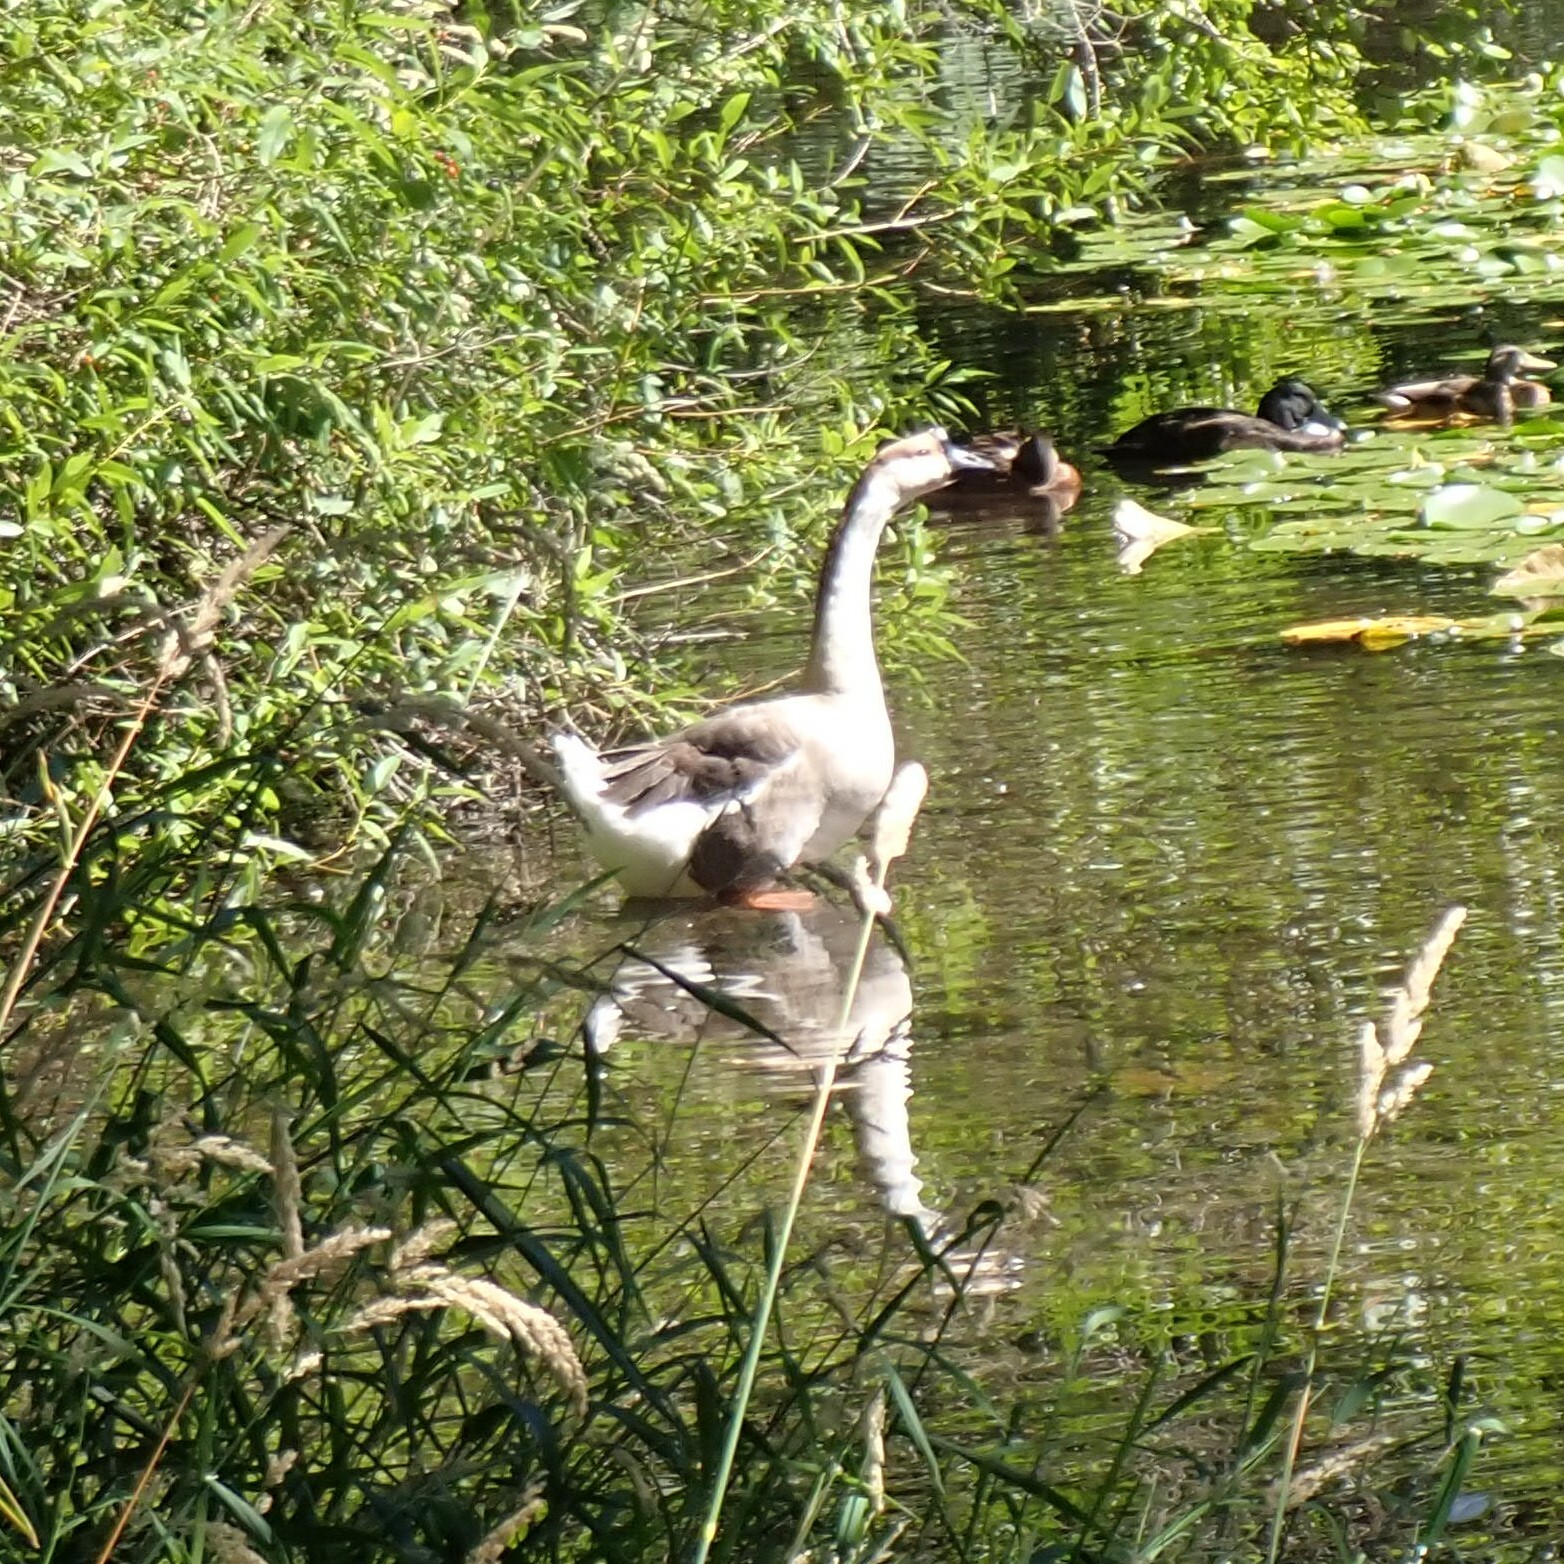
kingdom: Animalia
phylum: Chordata
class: Aves
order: Anseriformes
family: Anatidae
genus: Anser
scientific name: Anser cygnoides
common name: Swan goose
